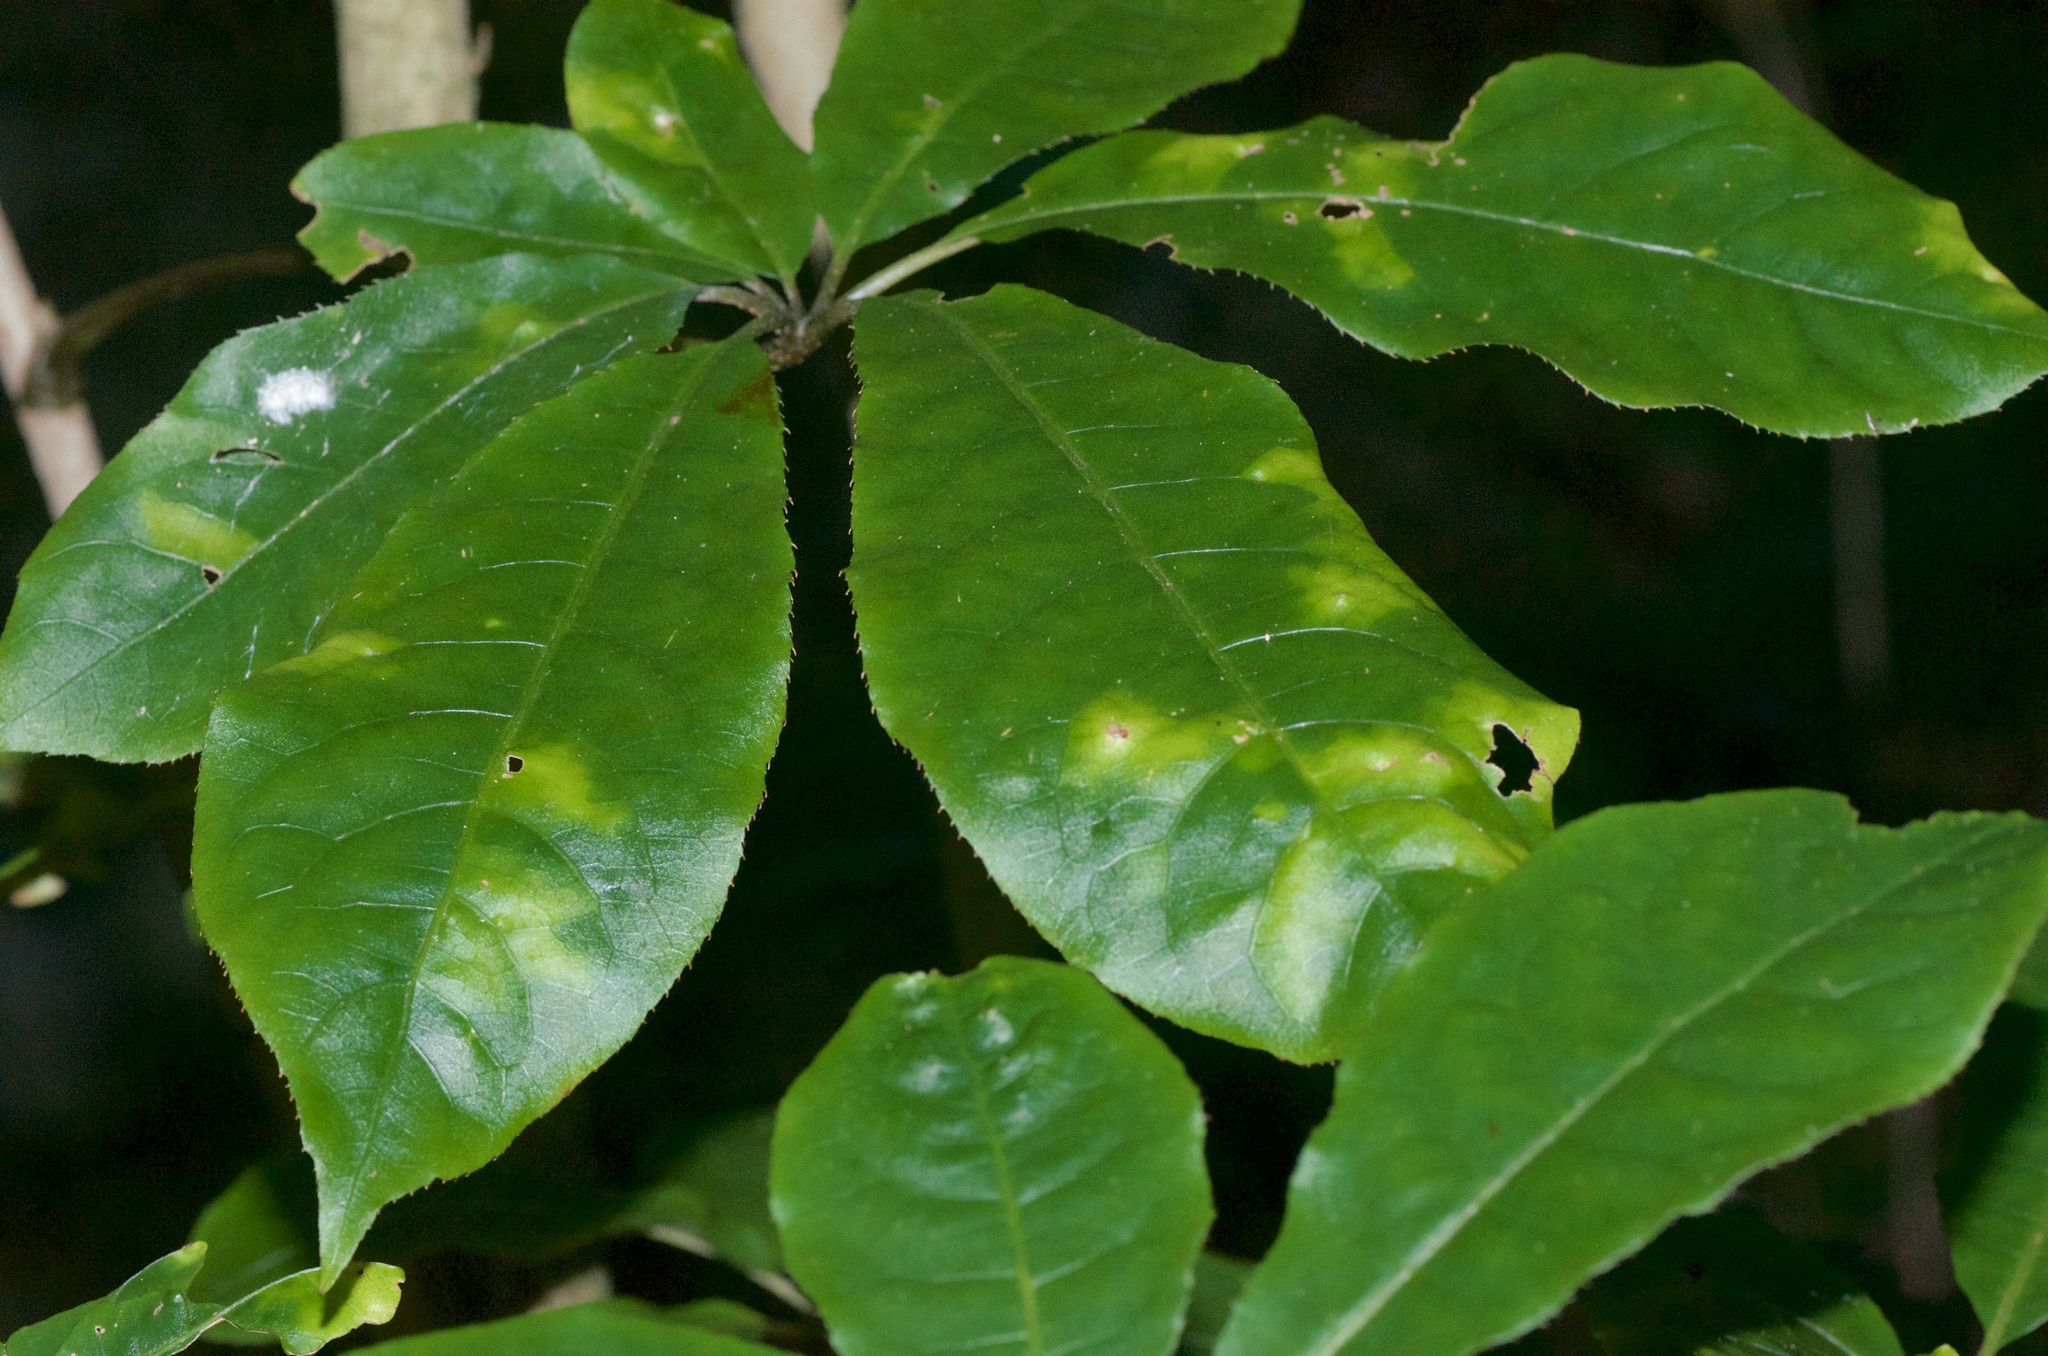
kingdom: Plantae
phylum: Tracheophyta
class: Magnoliopsida
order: Apiales
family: Araliaceae
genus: Schefflera
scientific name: Schefflera digitata
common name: Pate
